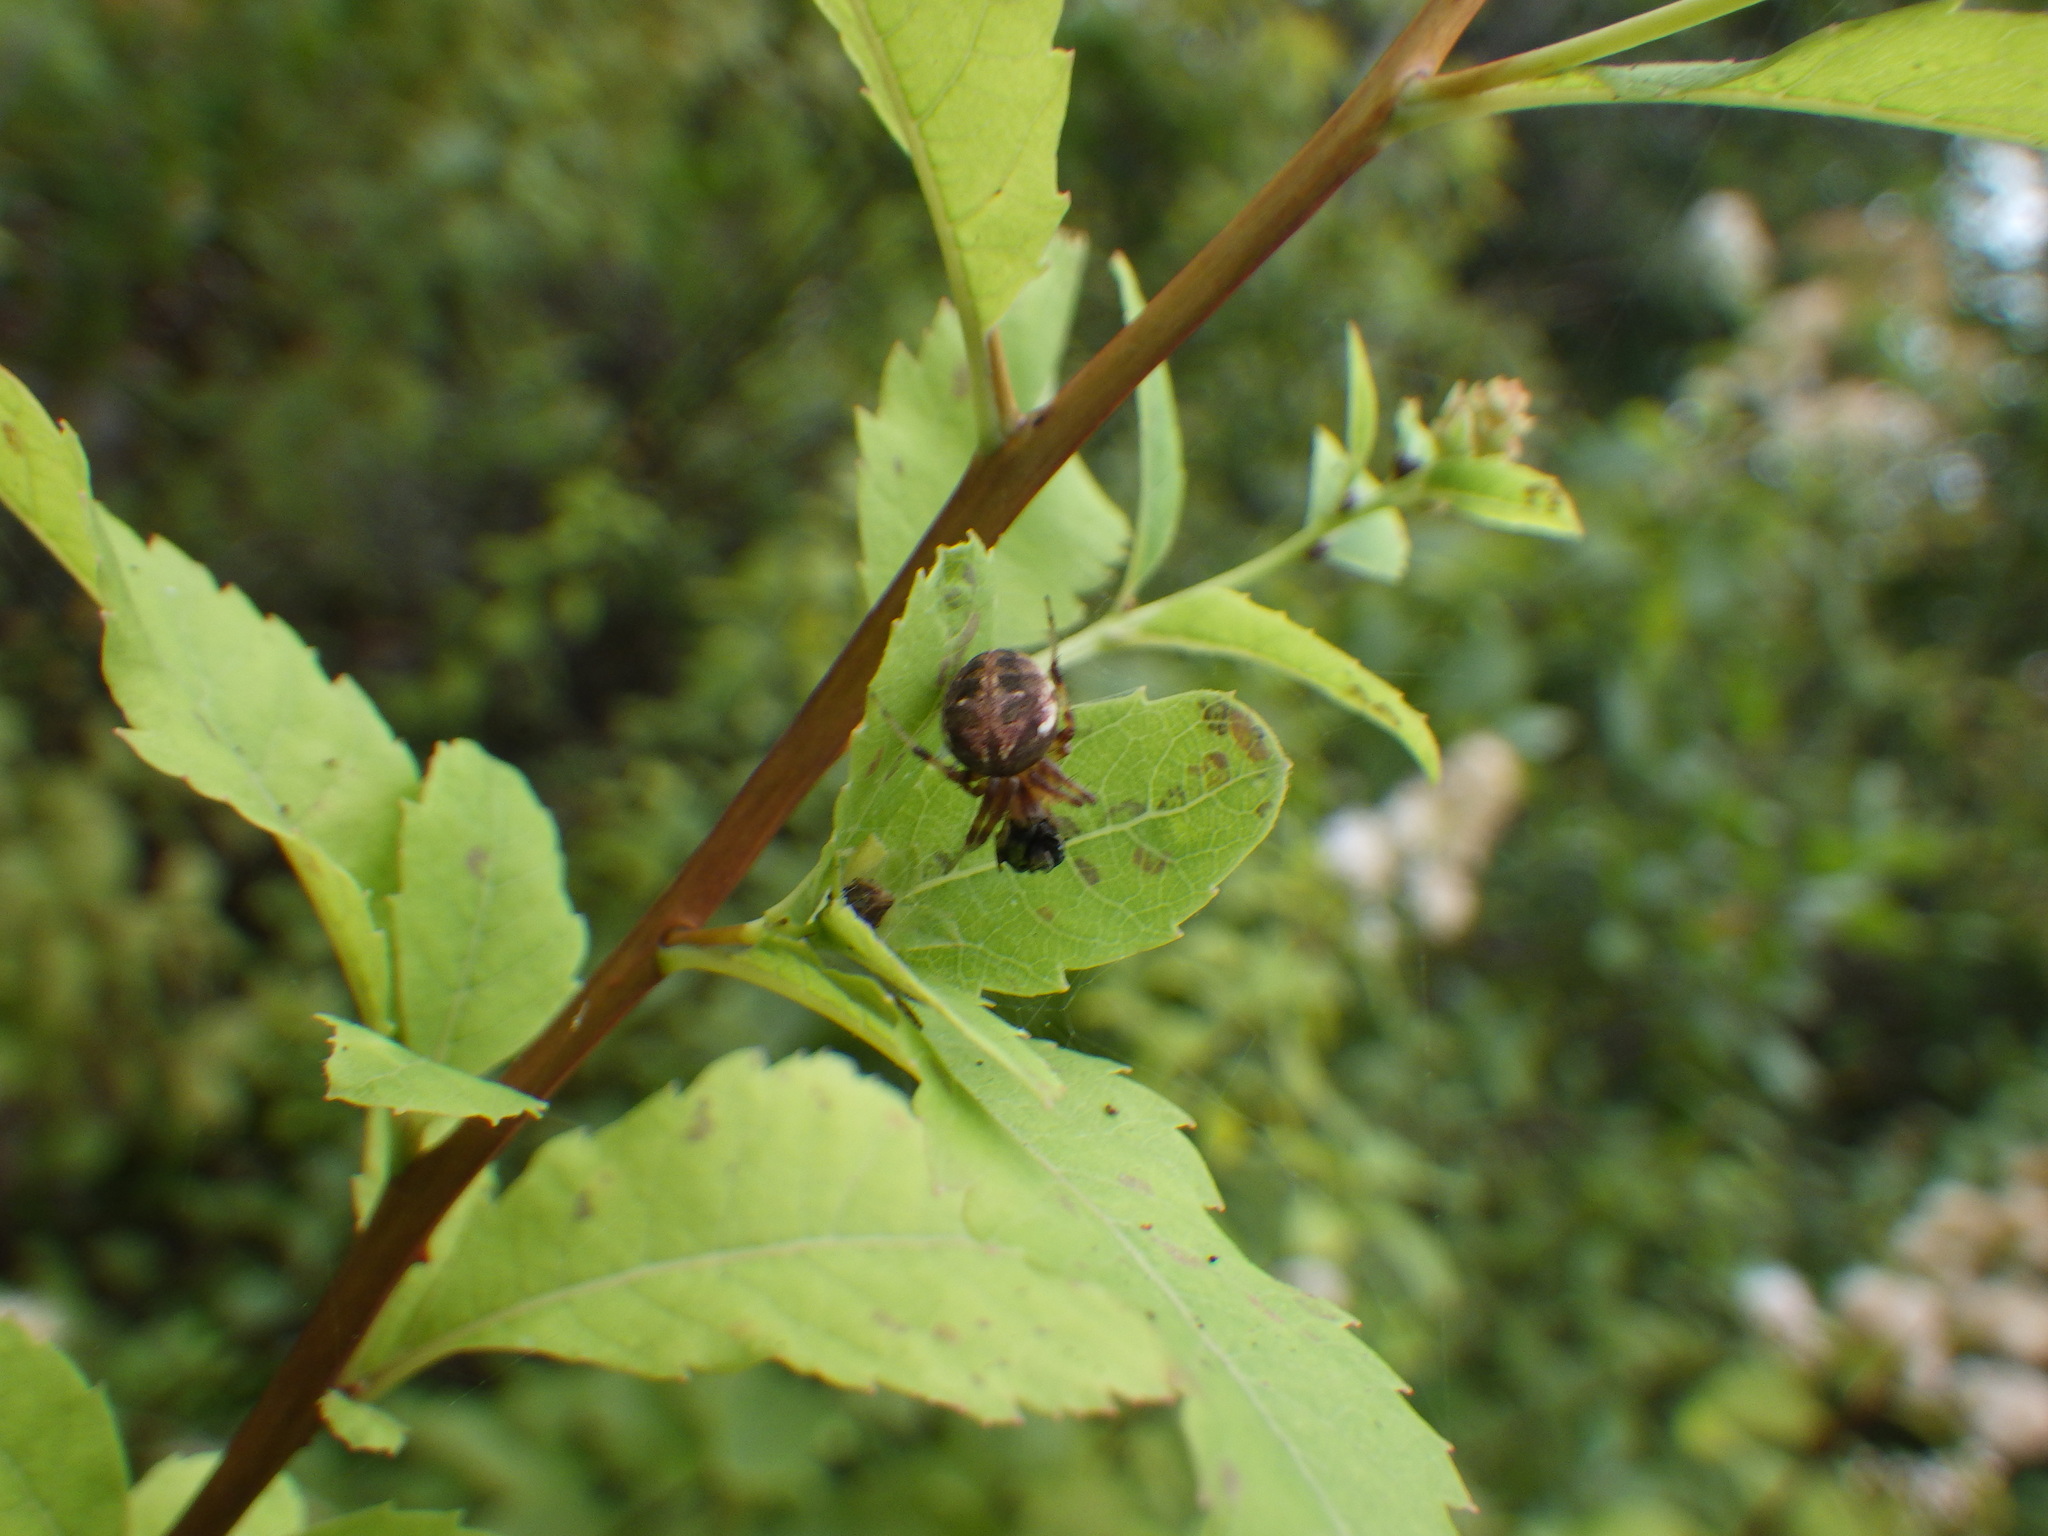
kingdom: Animalia
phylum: Arthropoda
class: Arachnida
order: Araneae
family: Araneidae
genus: Neoscona
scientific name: Neoscona arabesca
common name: Orb weavers
